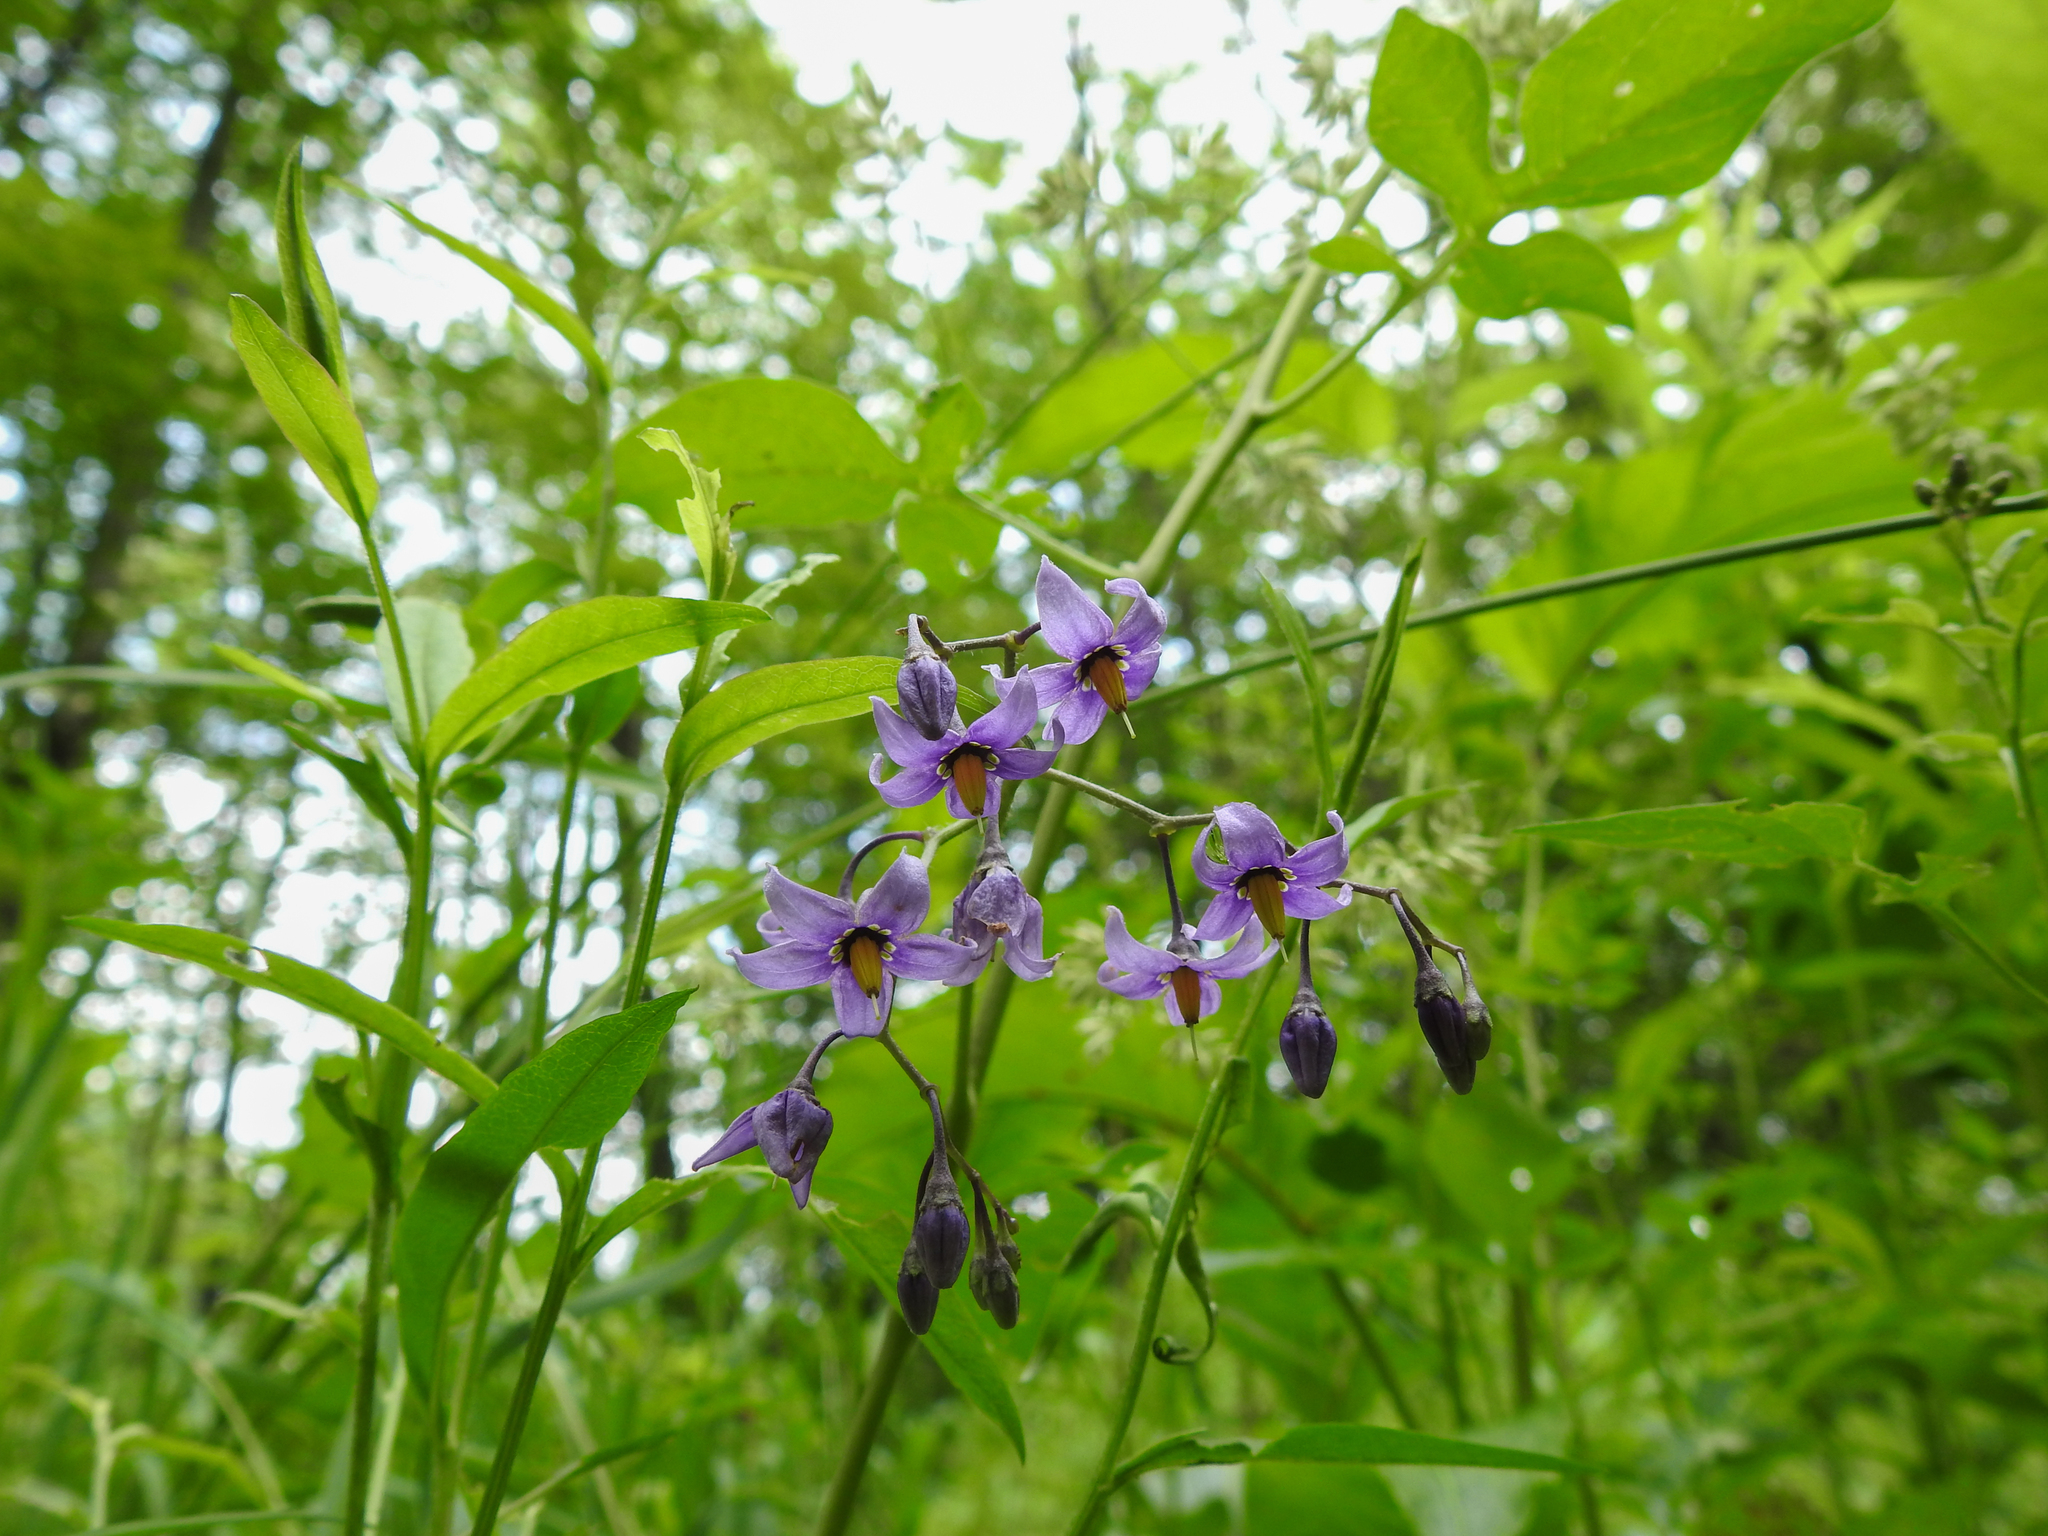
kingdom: Plantae
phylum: Tracheophyta
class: Magnoliopsida
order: Solanales
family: Solanaceae
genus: Solanum
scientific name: Solanum dulcamara
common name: Climbing nightshade
